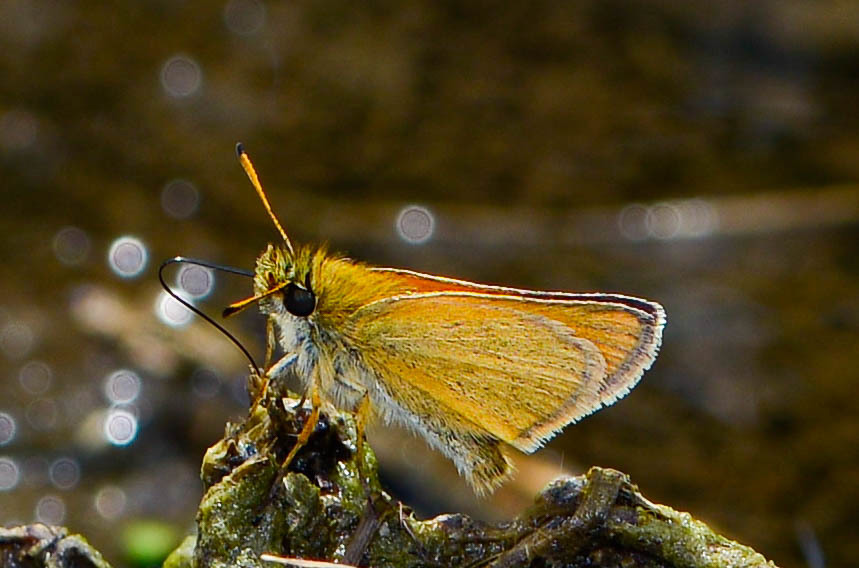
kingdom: Animalia
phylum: Arthropoda
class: Insecta
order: Lepidoptera
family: Hesperiidae
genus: Thymelicus
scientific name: Thymelicus lineola
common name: Essex skipper
